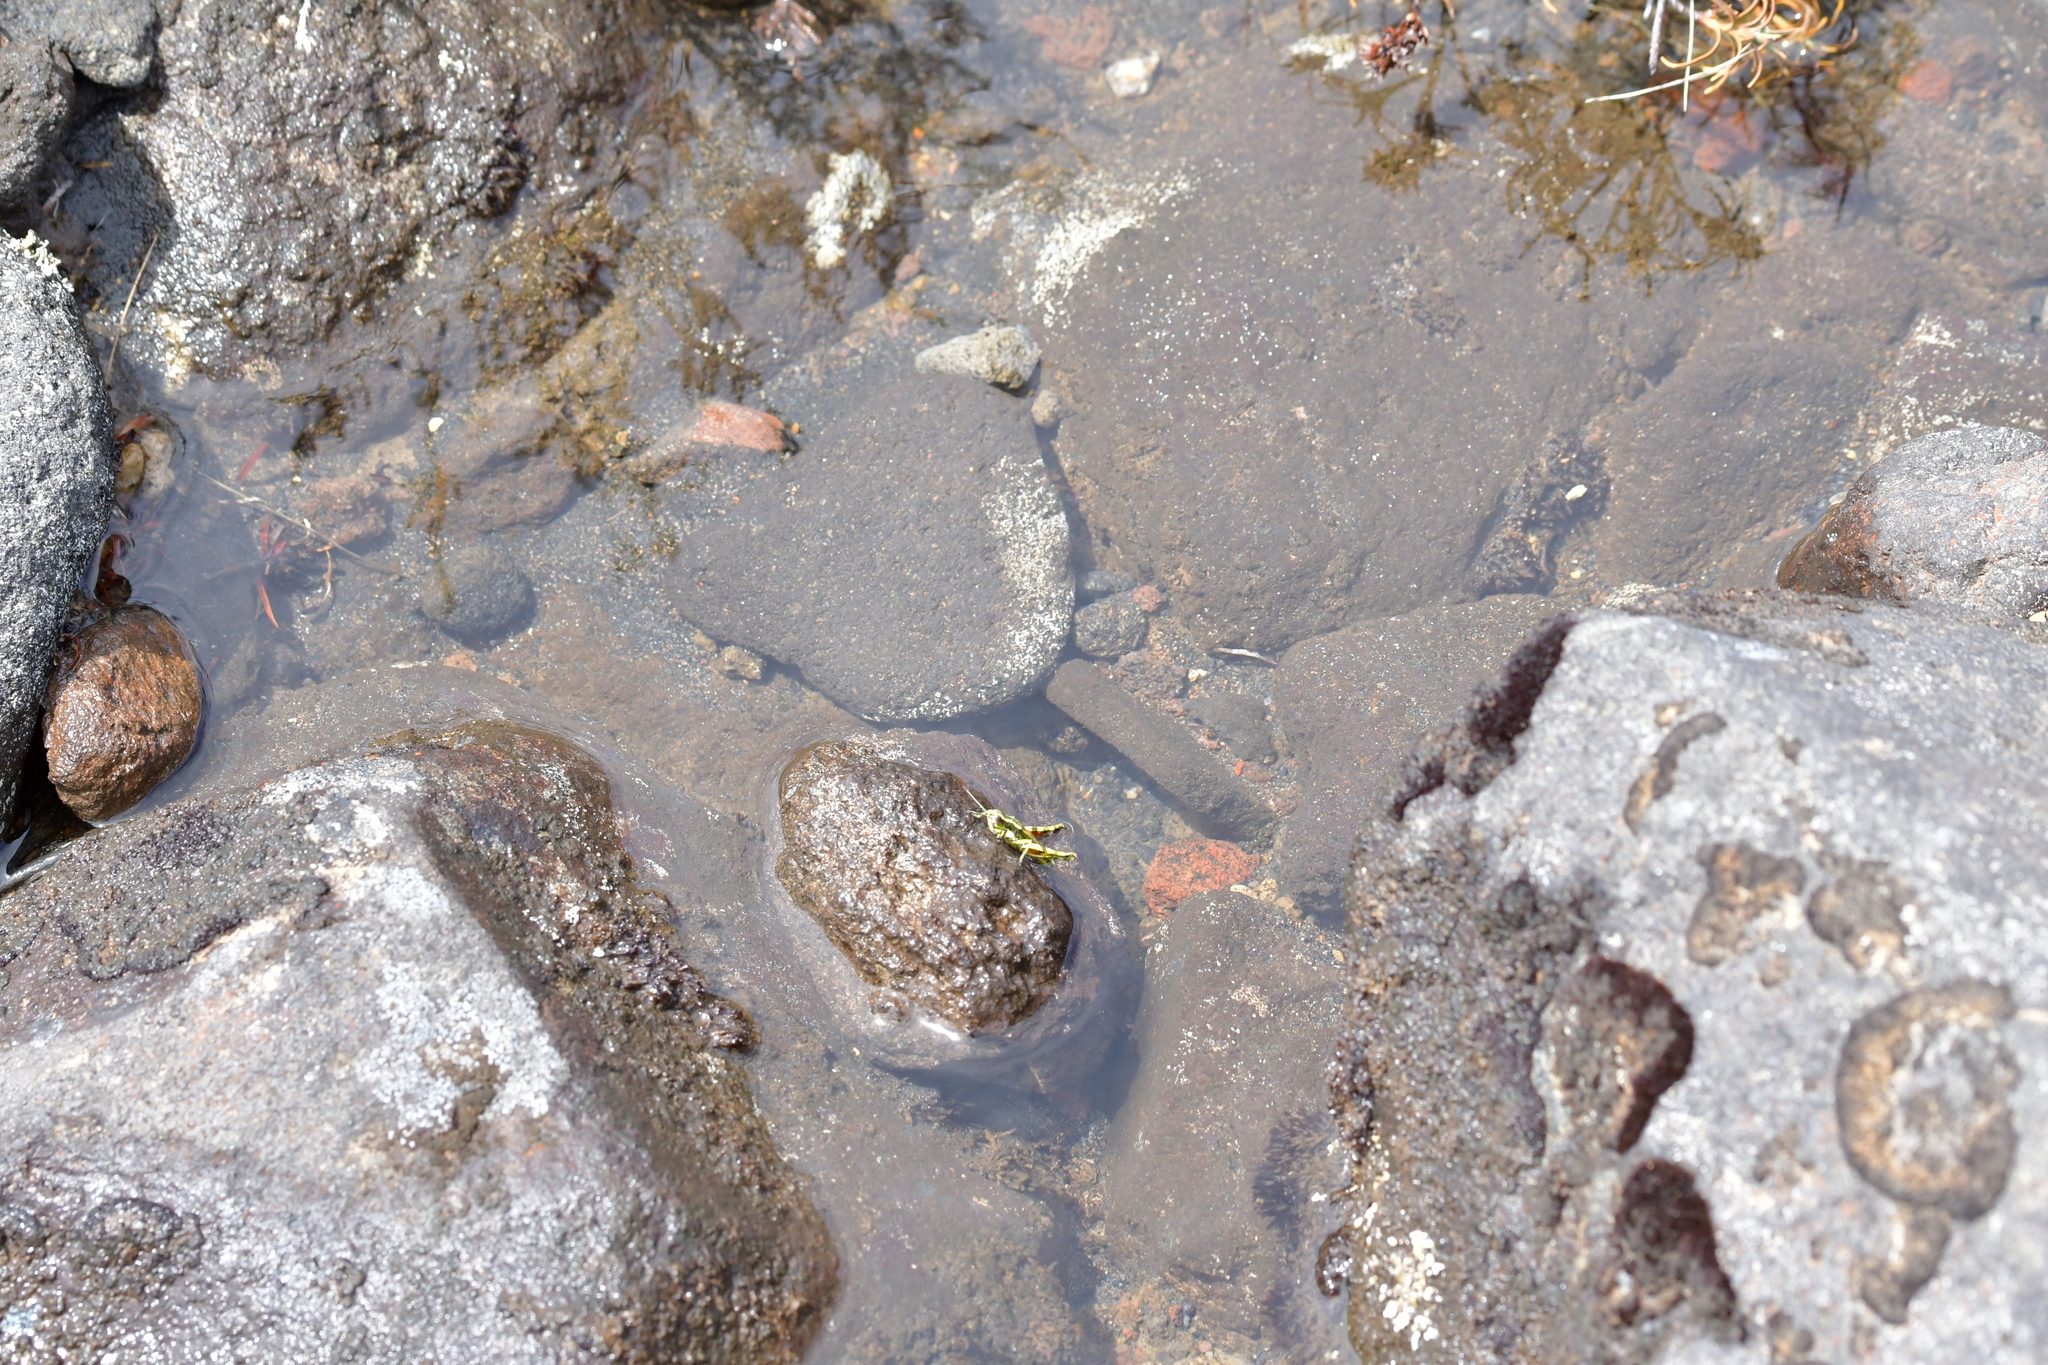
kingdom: Animalia
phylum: Arthropoda
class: Insecta
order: Orthoptera
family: Acrididae
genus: Sigaus
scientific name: Sigaus piliferus
